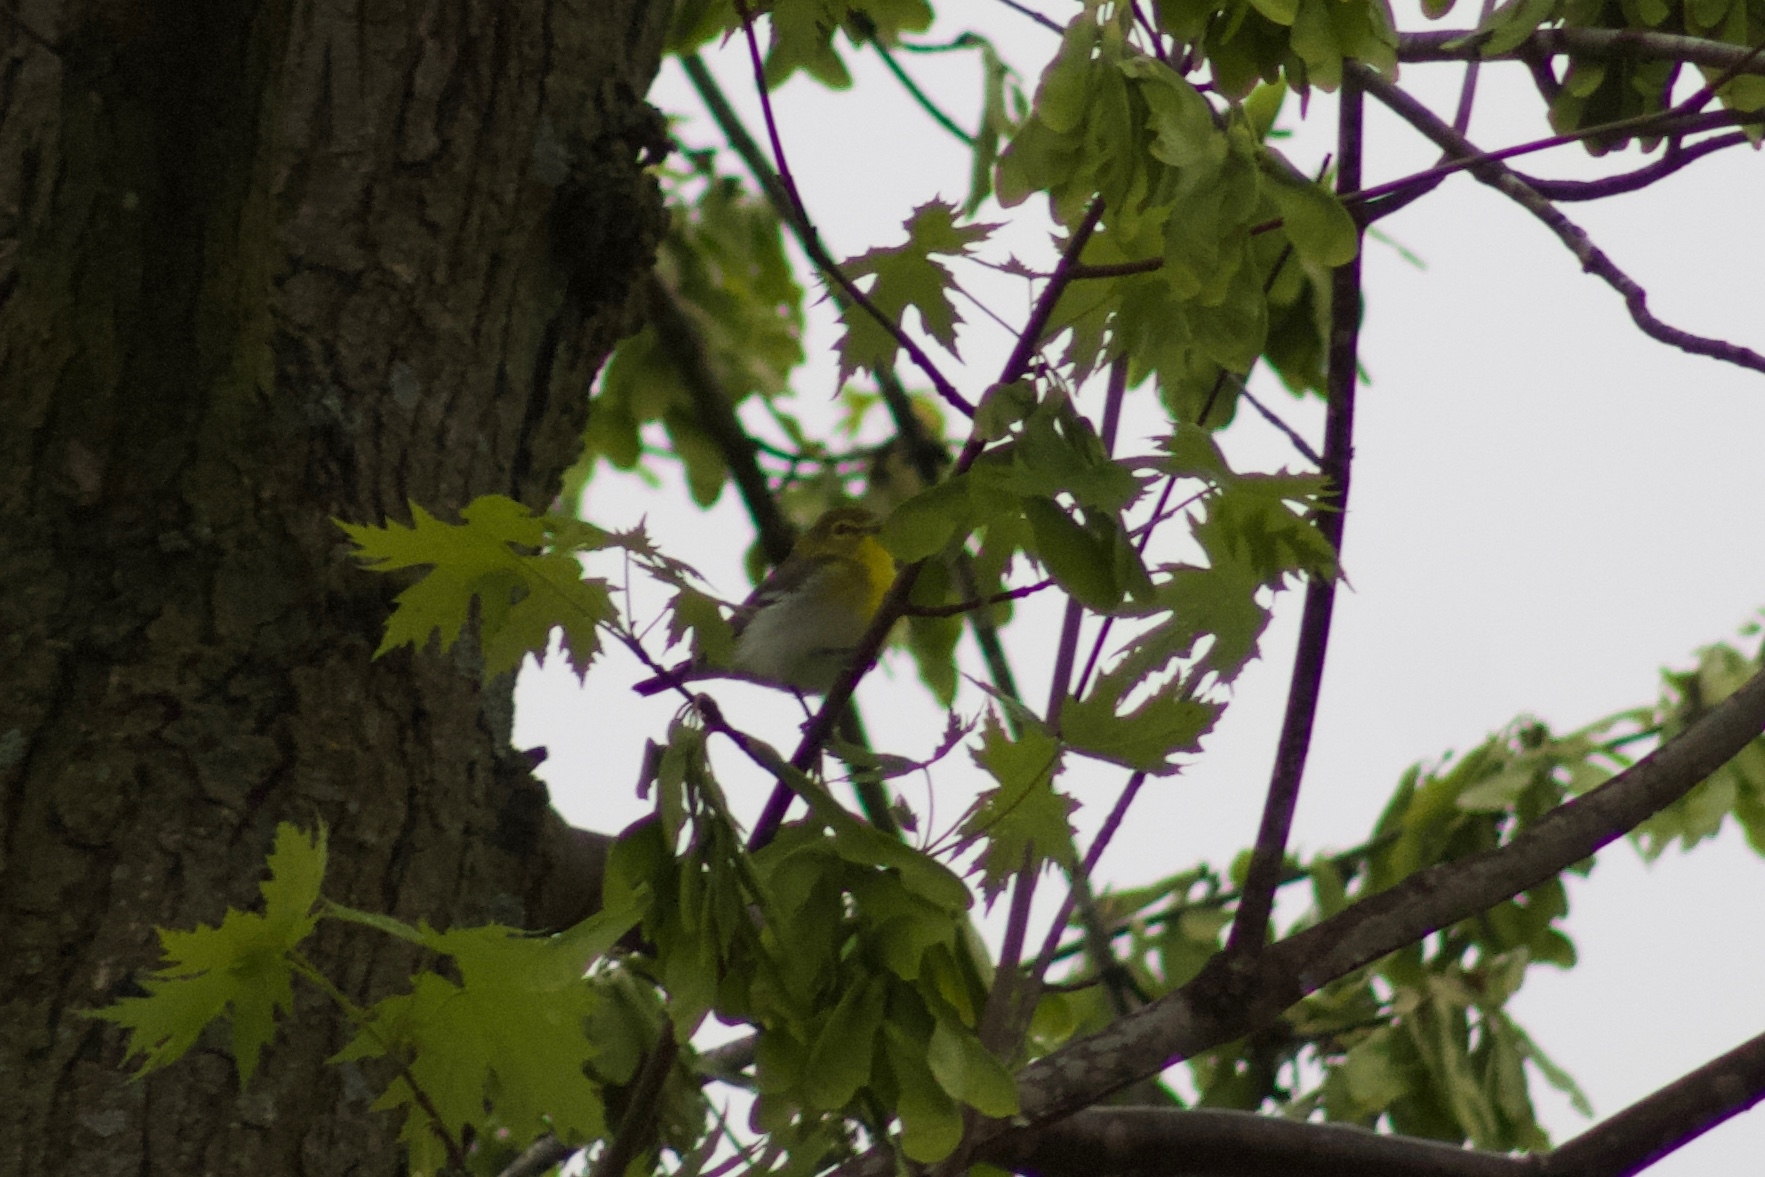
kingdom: Animalia
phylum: Chordata
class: Aves
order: Passeriformes
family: Vireonidae
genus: Vireo
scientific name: Vireo flavifrons
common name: Yellow-throated vireo
